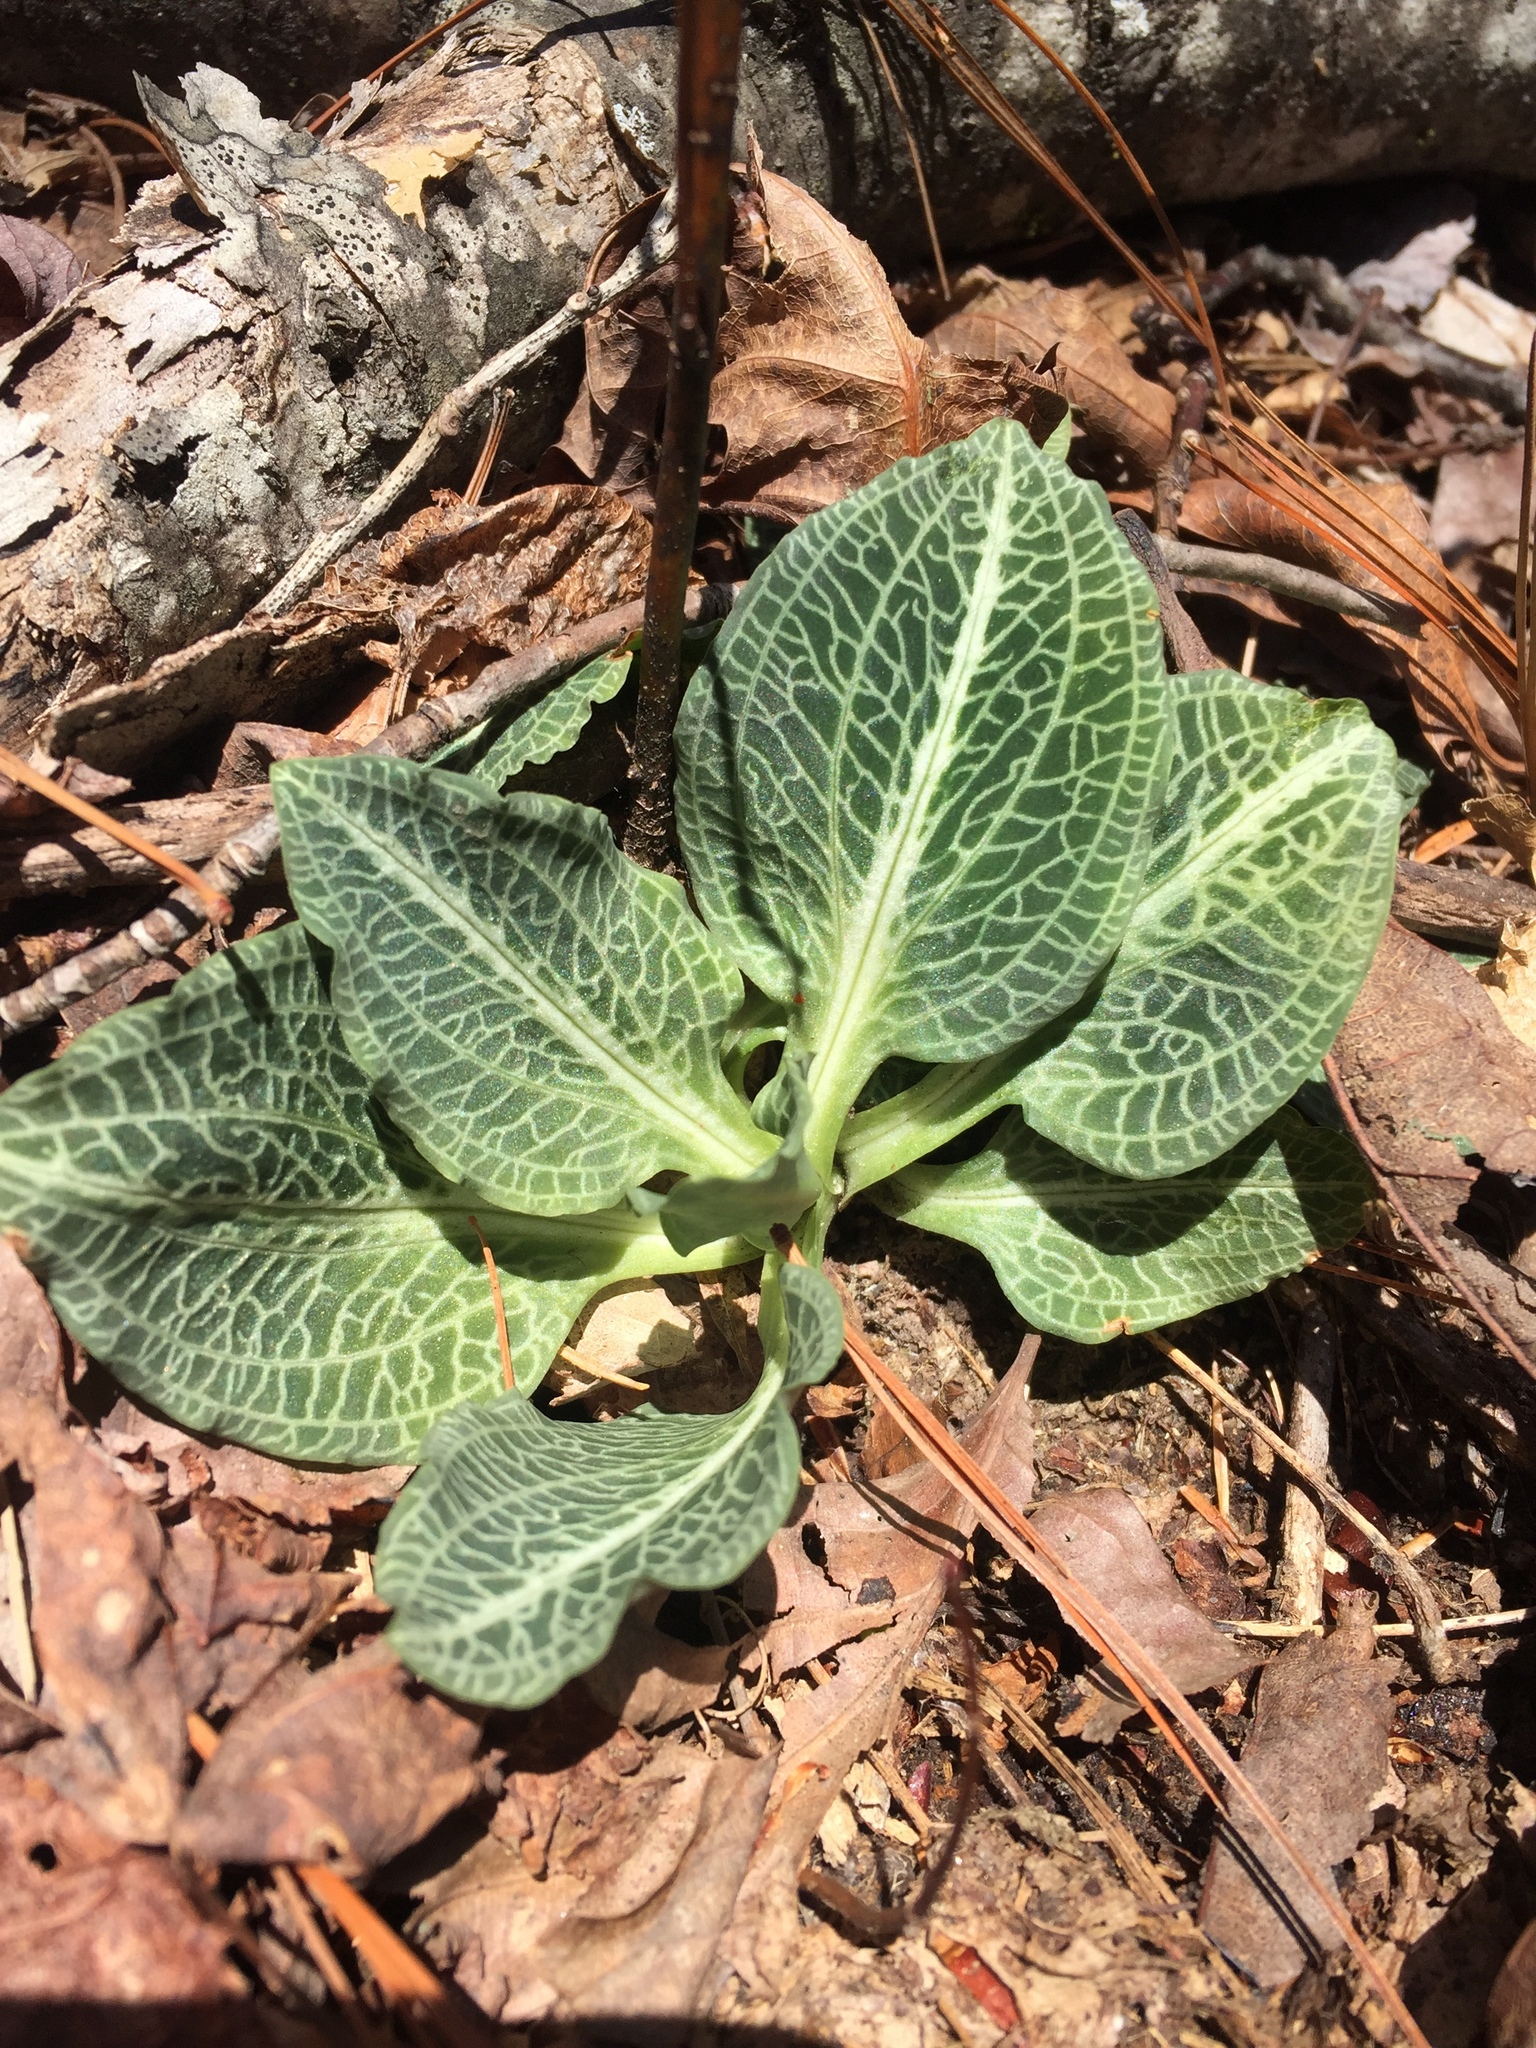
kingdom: Plantae
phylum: Tracheophyta
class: Liliopsida
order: Asparagales
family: Orchidaceae
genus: Goodyera
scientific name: Goodyera pubescens
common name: Downy rattlesnake-plantain
